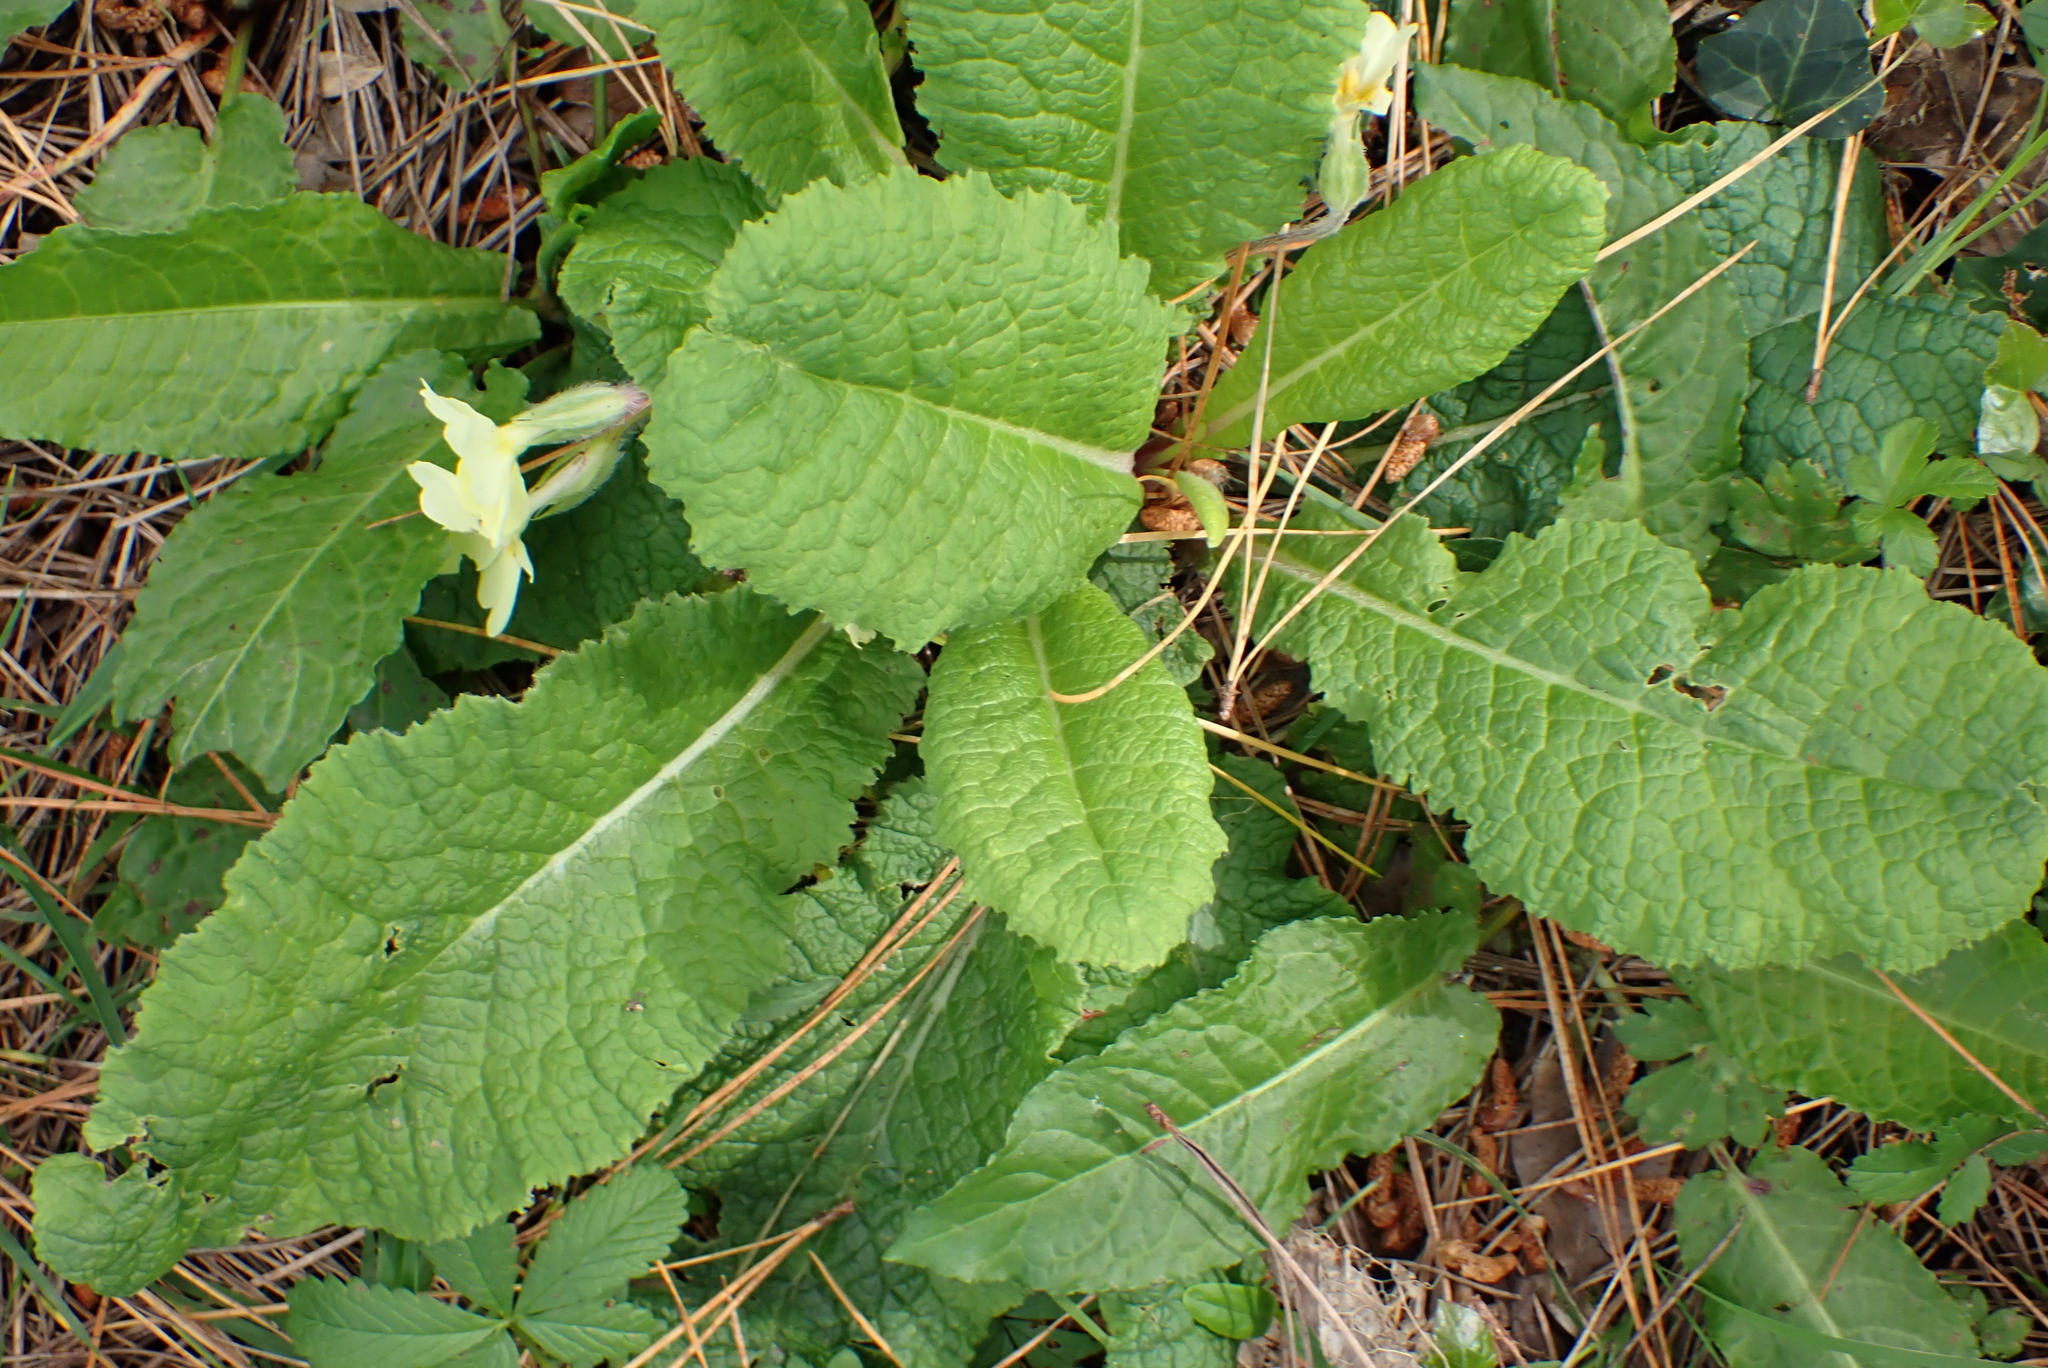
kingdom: Plantae
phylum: Tracheophyta
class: Magnoliopsida
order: Ericales
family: Primulaceae
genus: Primula
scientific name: Primula vulgaris
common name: Primrose
